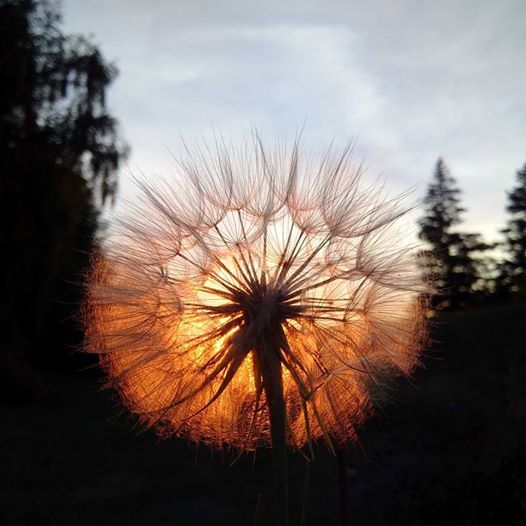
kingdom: Plantae
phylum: Tracheophyta
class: Magnoliopsida
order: Asterales
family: Asteraceae
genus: Tragopogon
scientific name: Tragopogon dubius
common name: Yellow salsify
